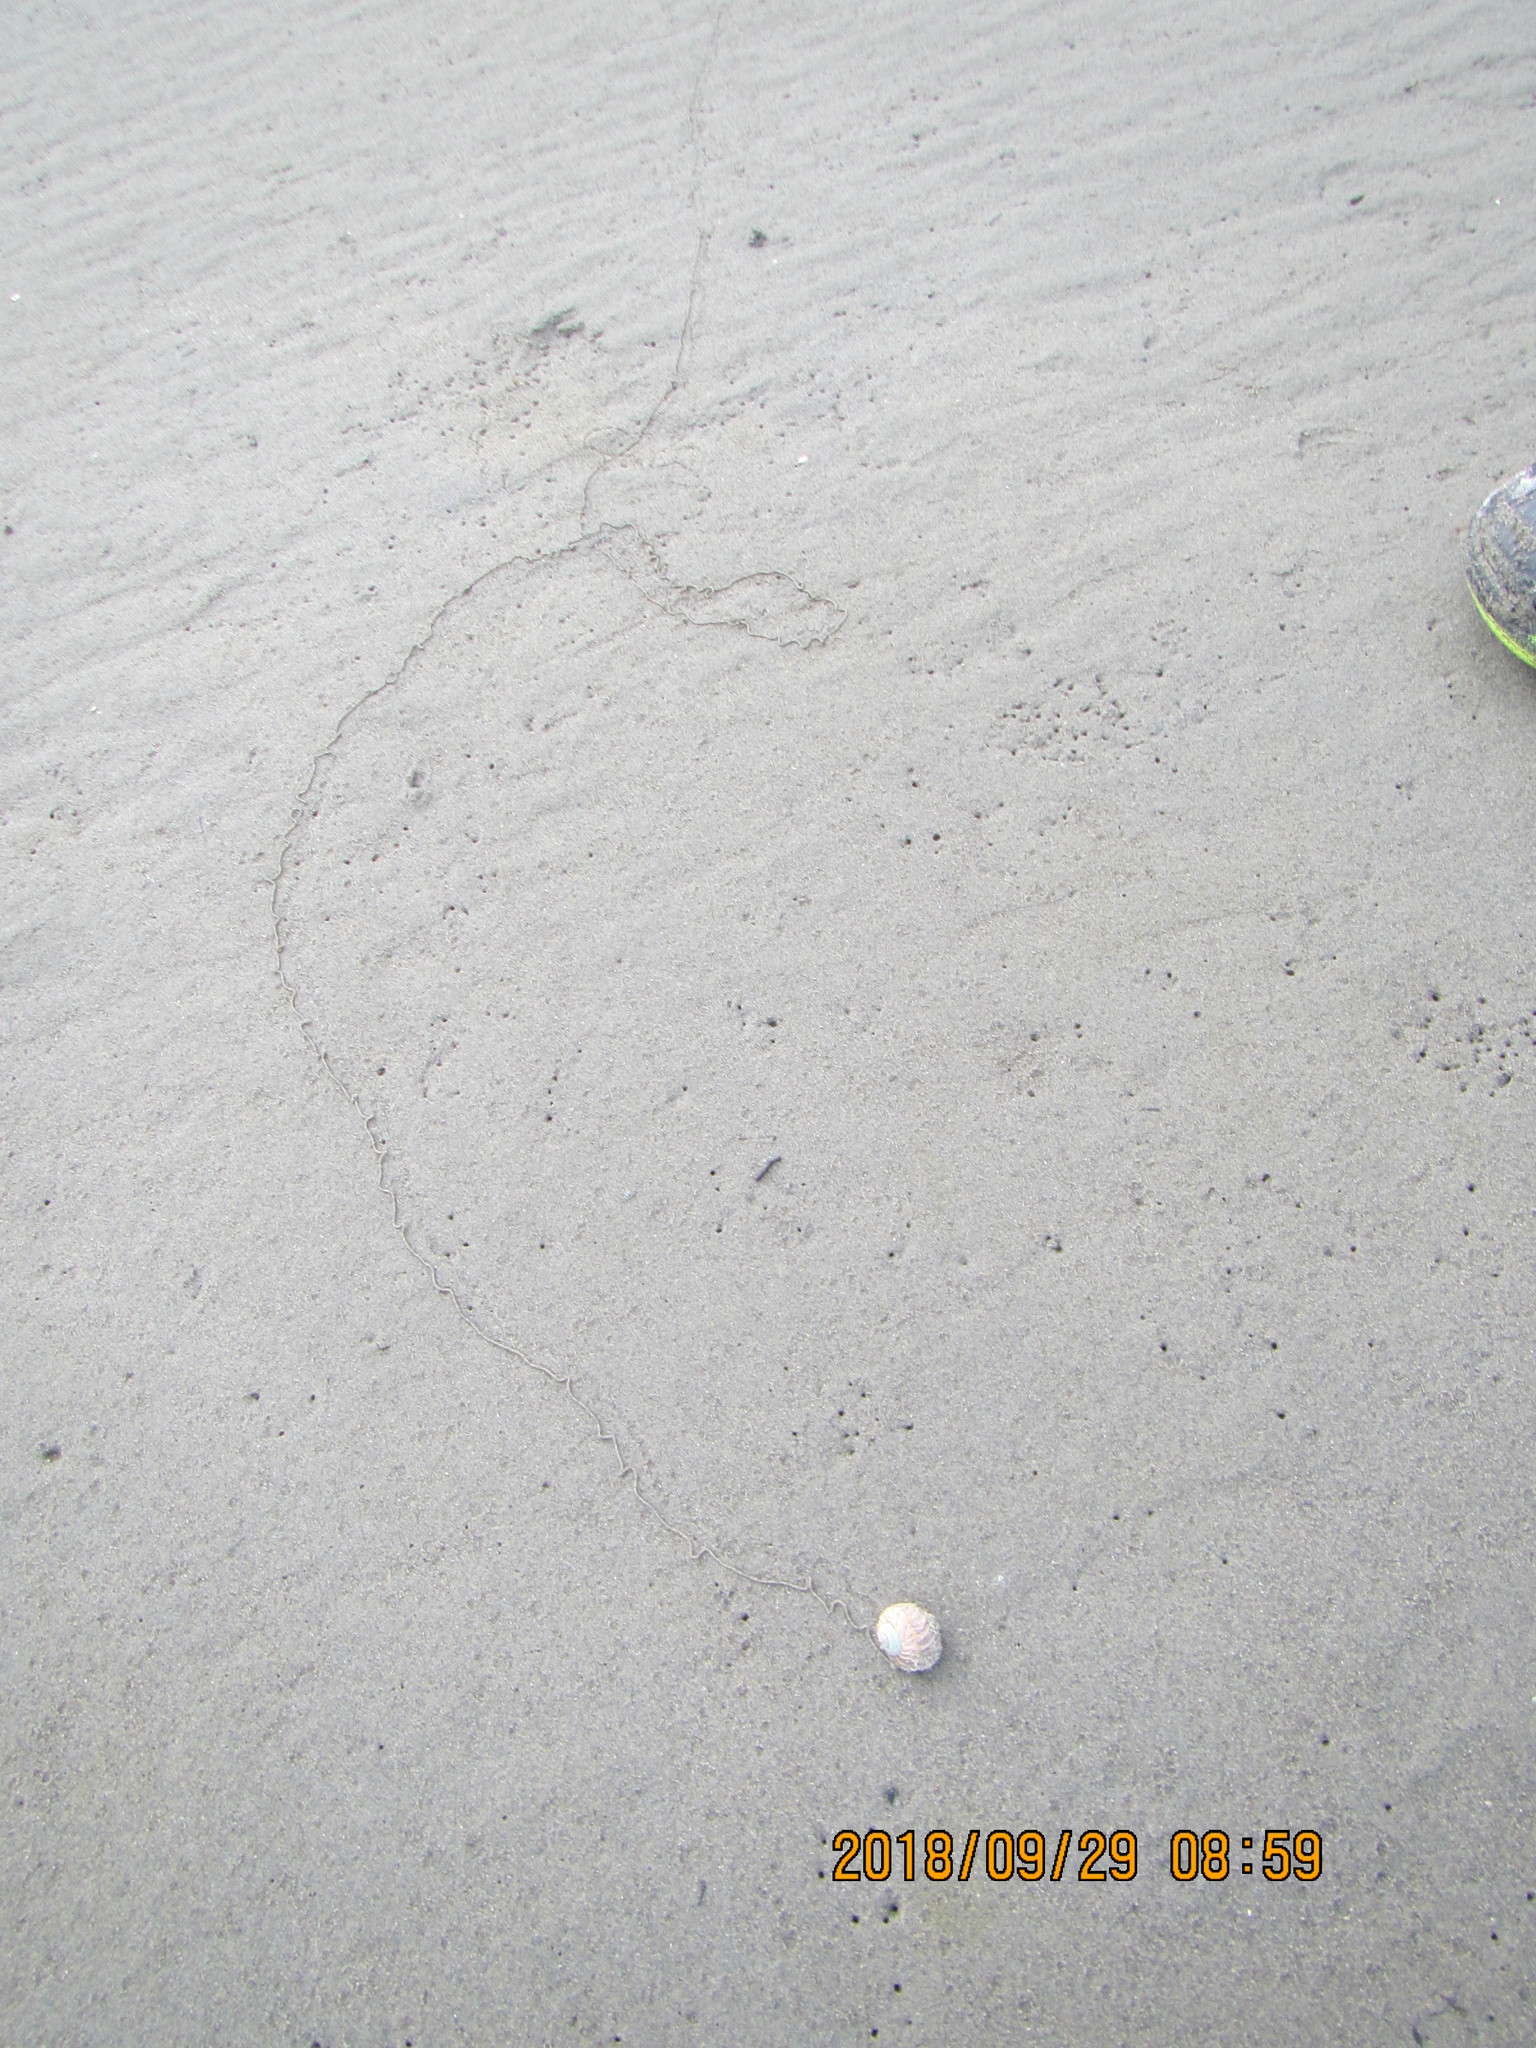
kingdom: Animalia
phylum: Mollusca
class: Gastropoda
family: Amphibolidae
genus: Amphibola
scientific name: Amphibola crenata
